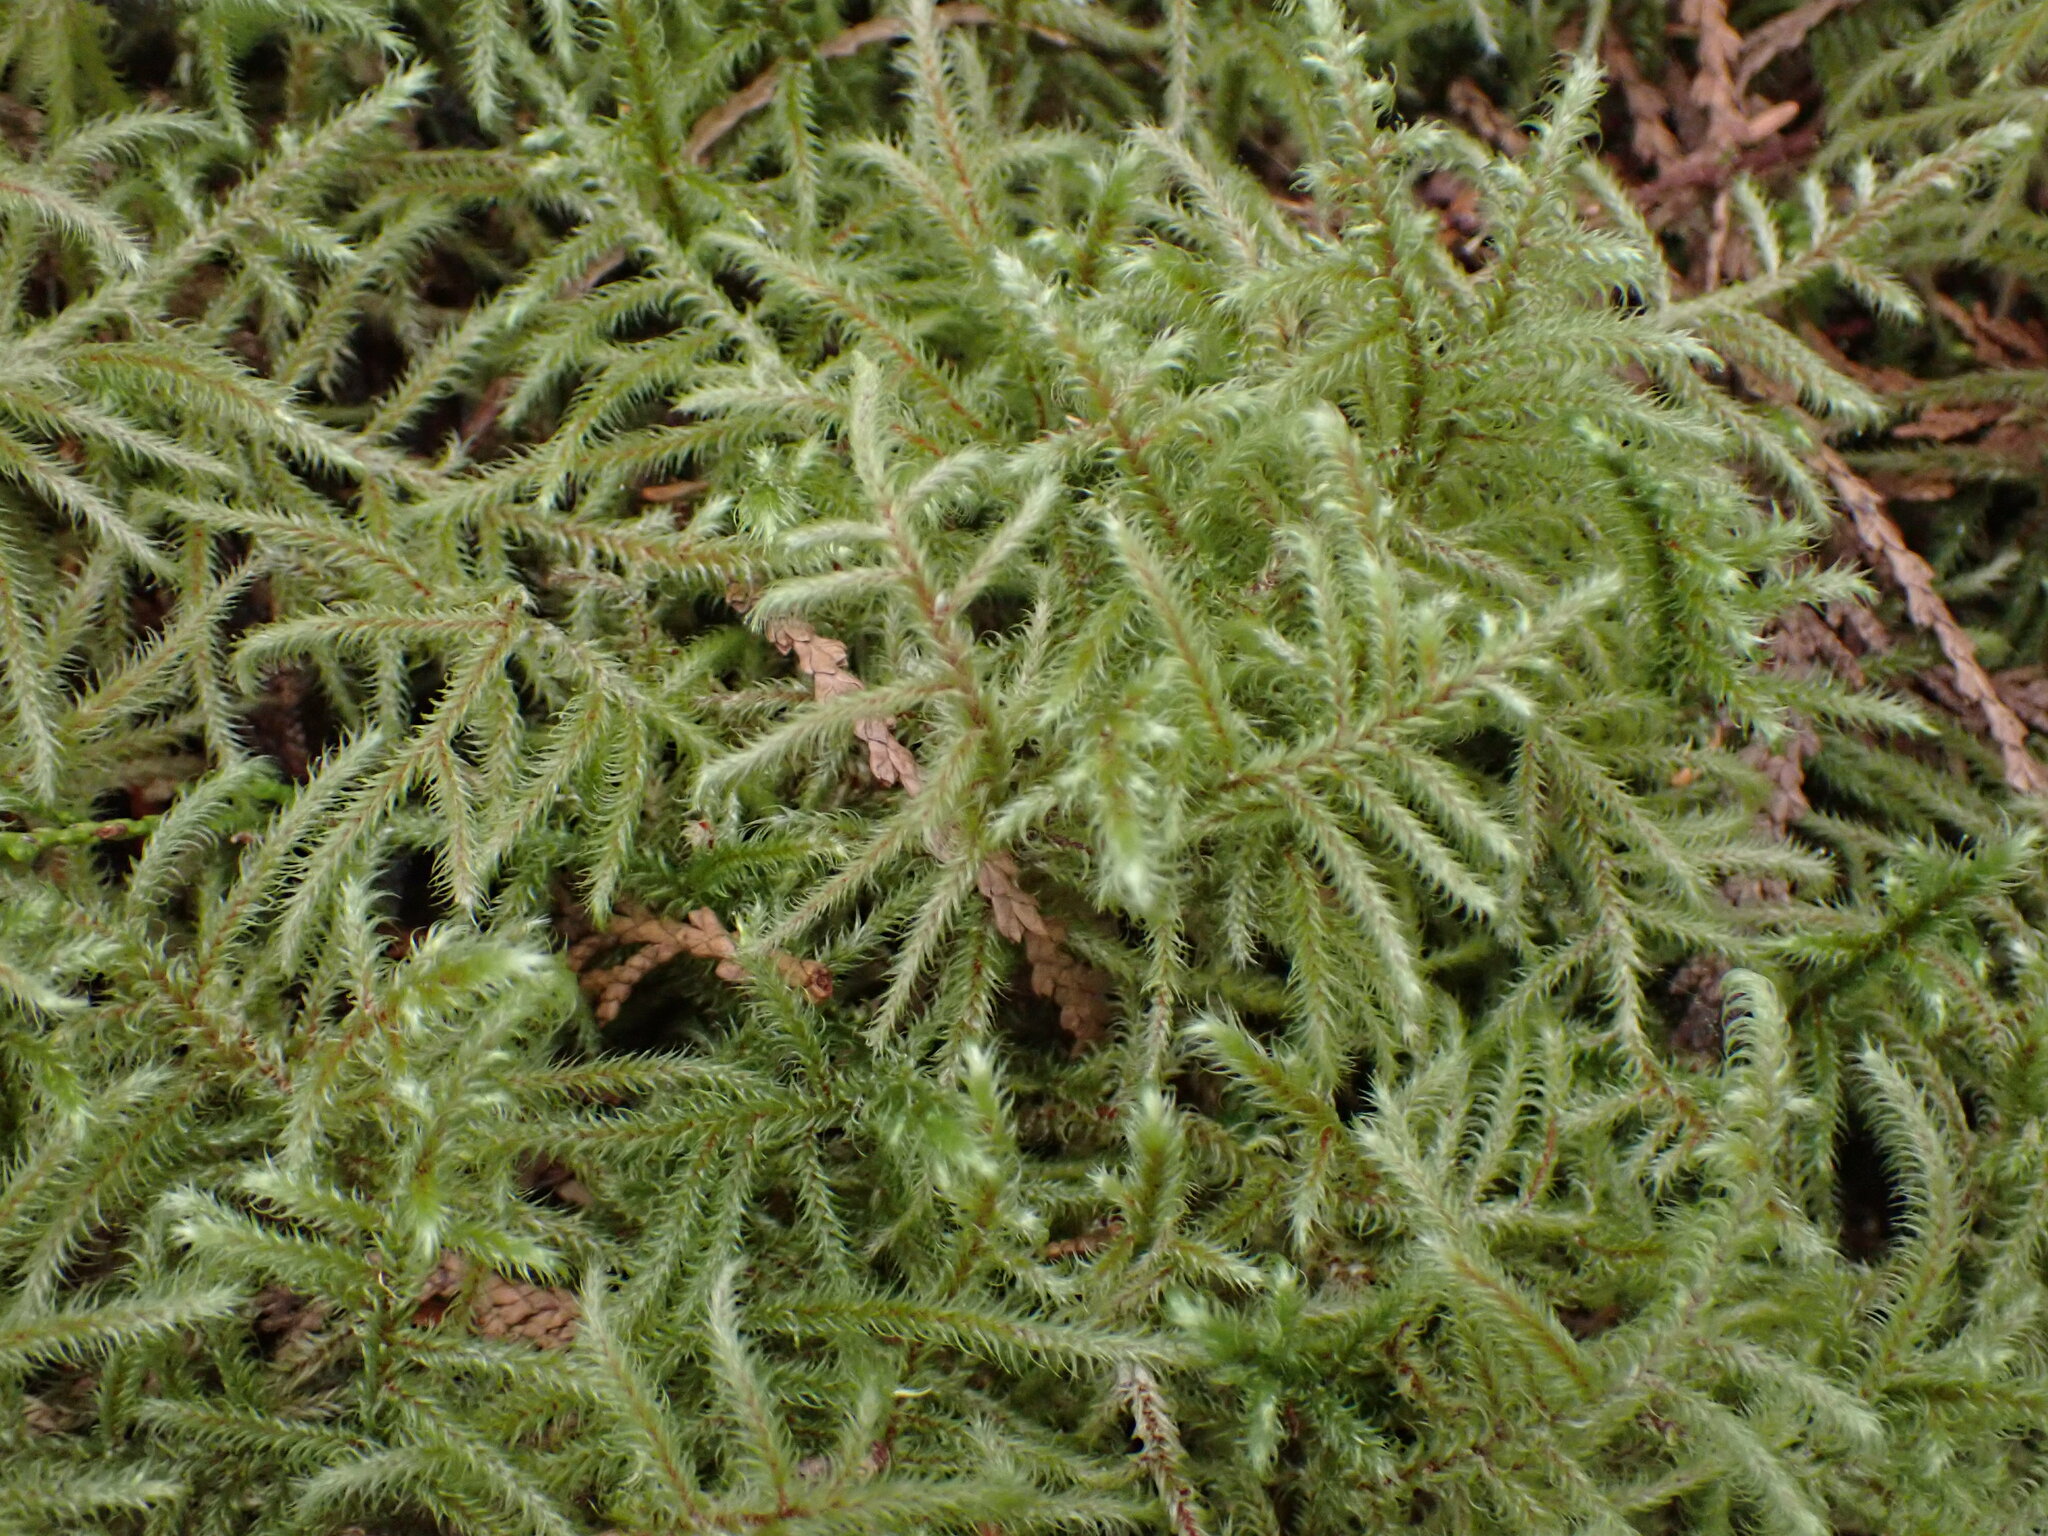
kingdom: Plantae
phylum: Bryophyta
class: Bryopsida
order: Hypnales
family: Hylocomiaceae
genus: Rhytidiadelphus
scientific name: Rhytidiadelphus loreus
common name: Lanky moss
